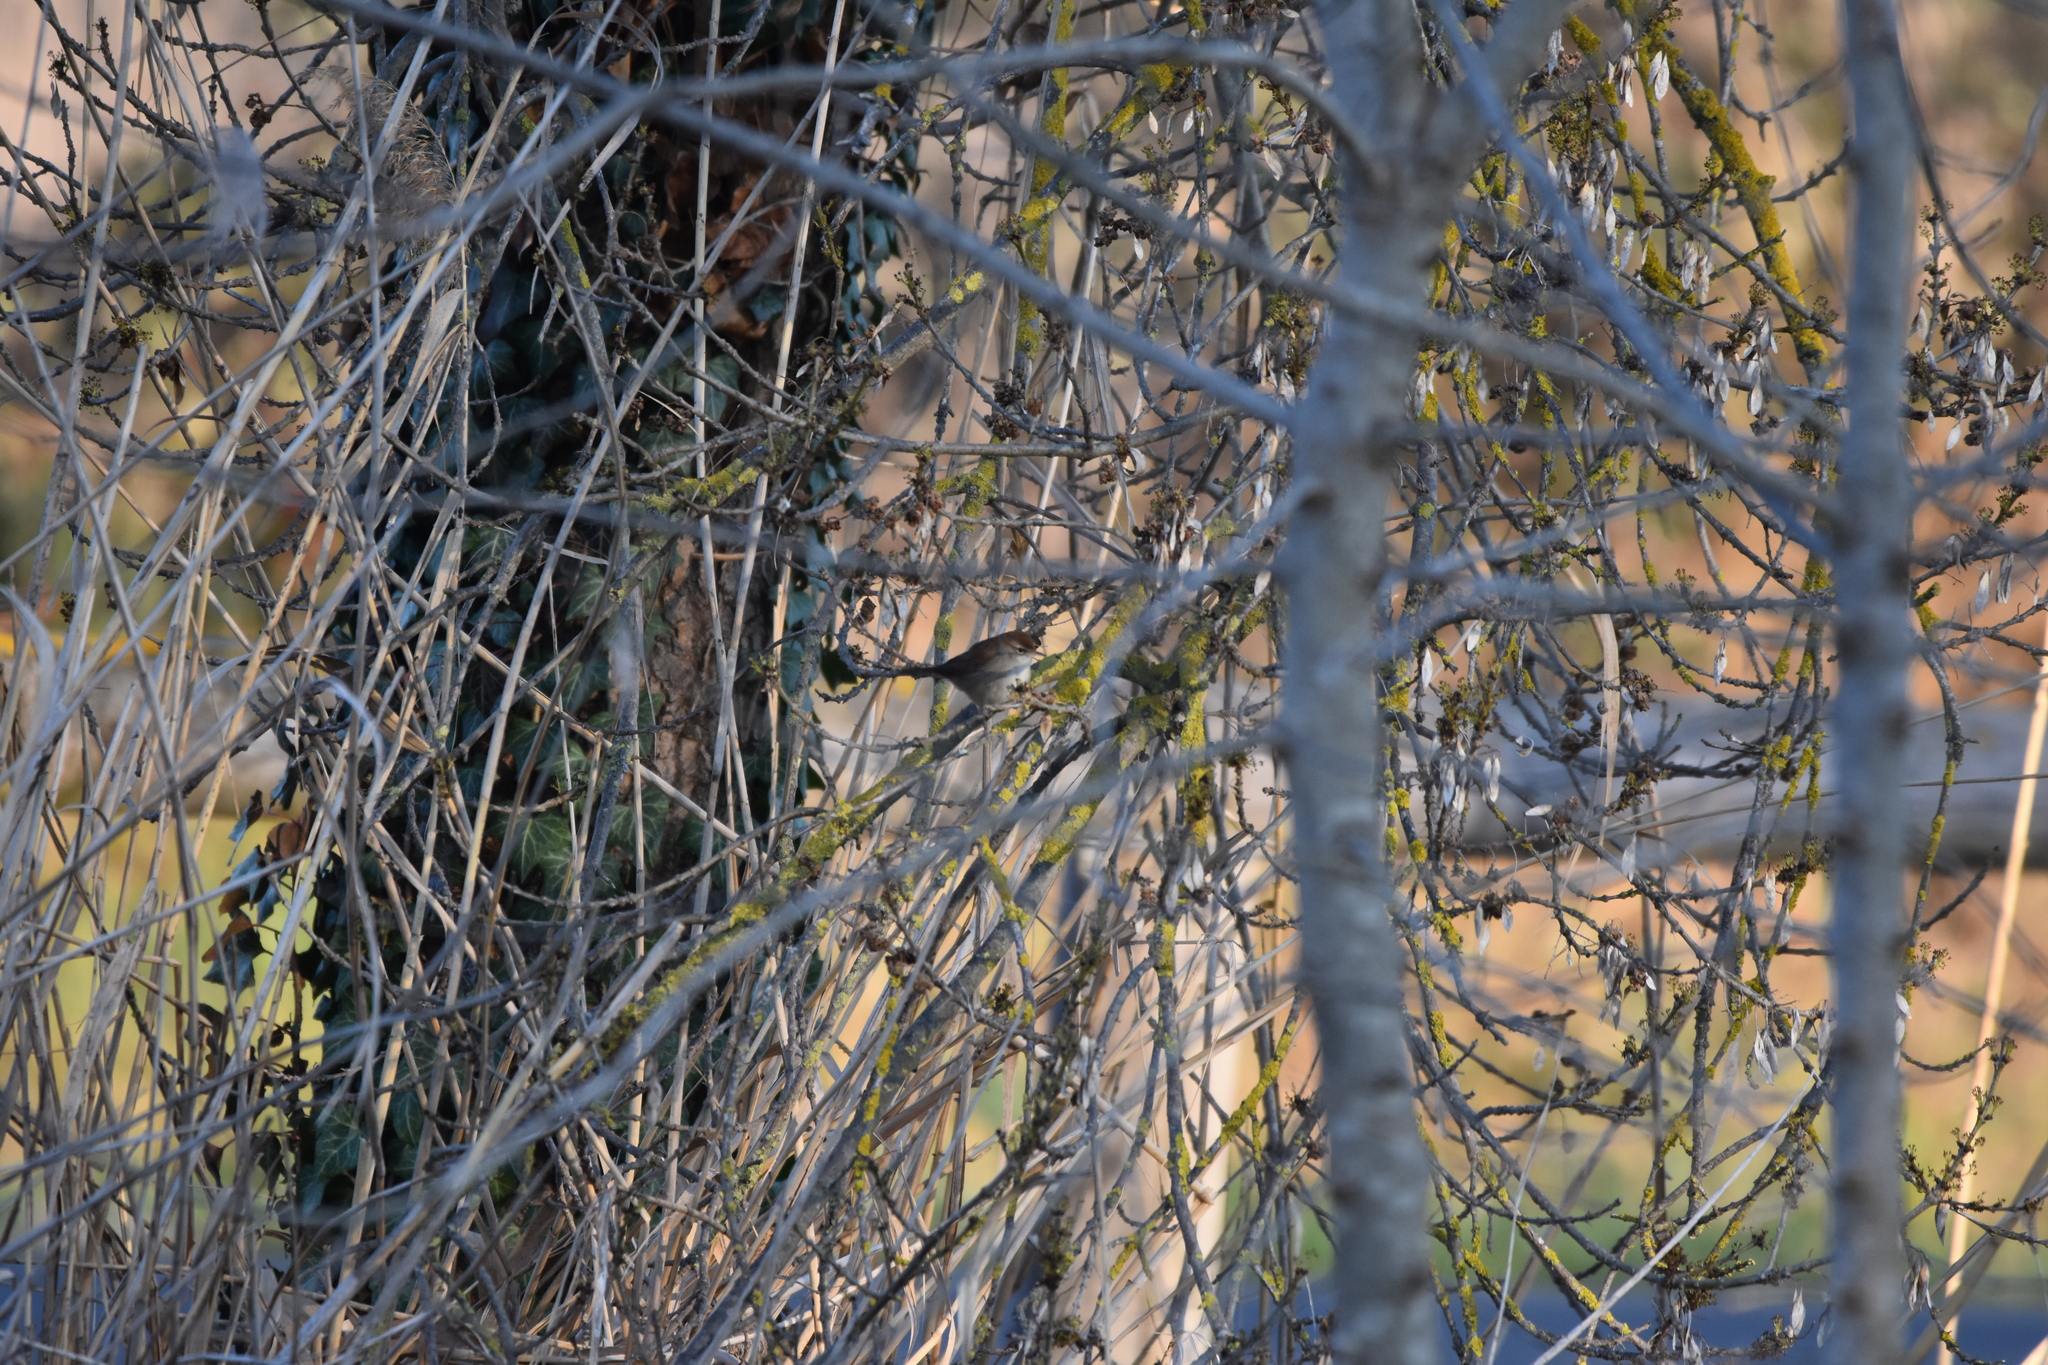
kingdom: Animalia
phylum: Chordata
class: Aves
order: Passeriformes
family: Cettiidae
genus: Cettia
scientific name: Cettia cetti
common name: Cetti's warbler
